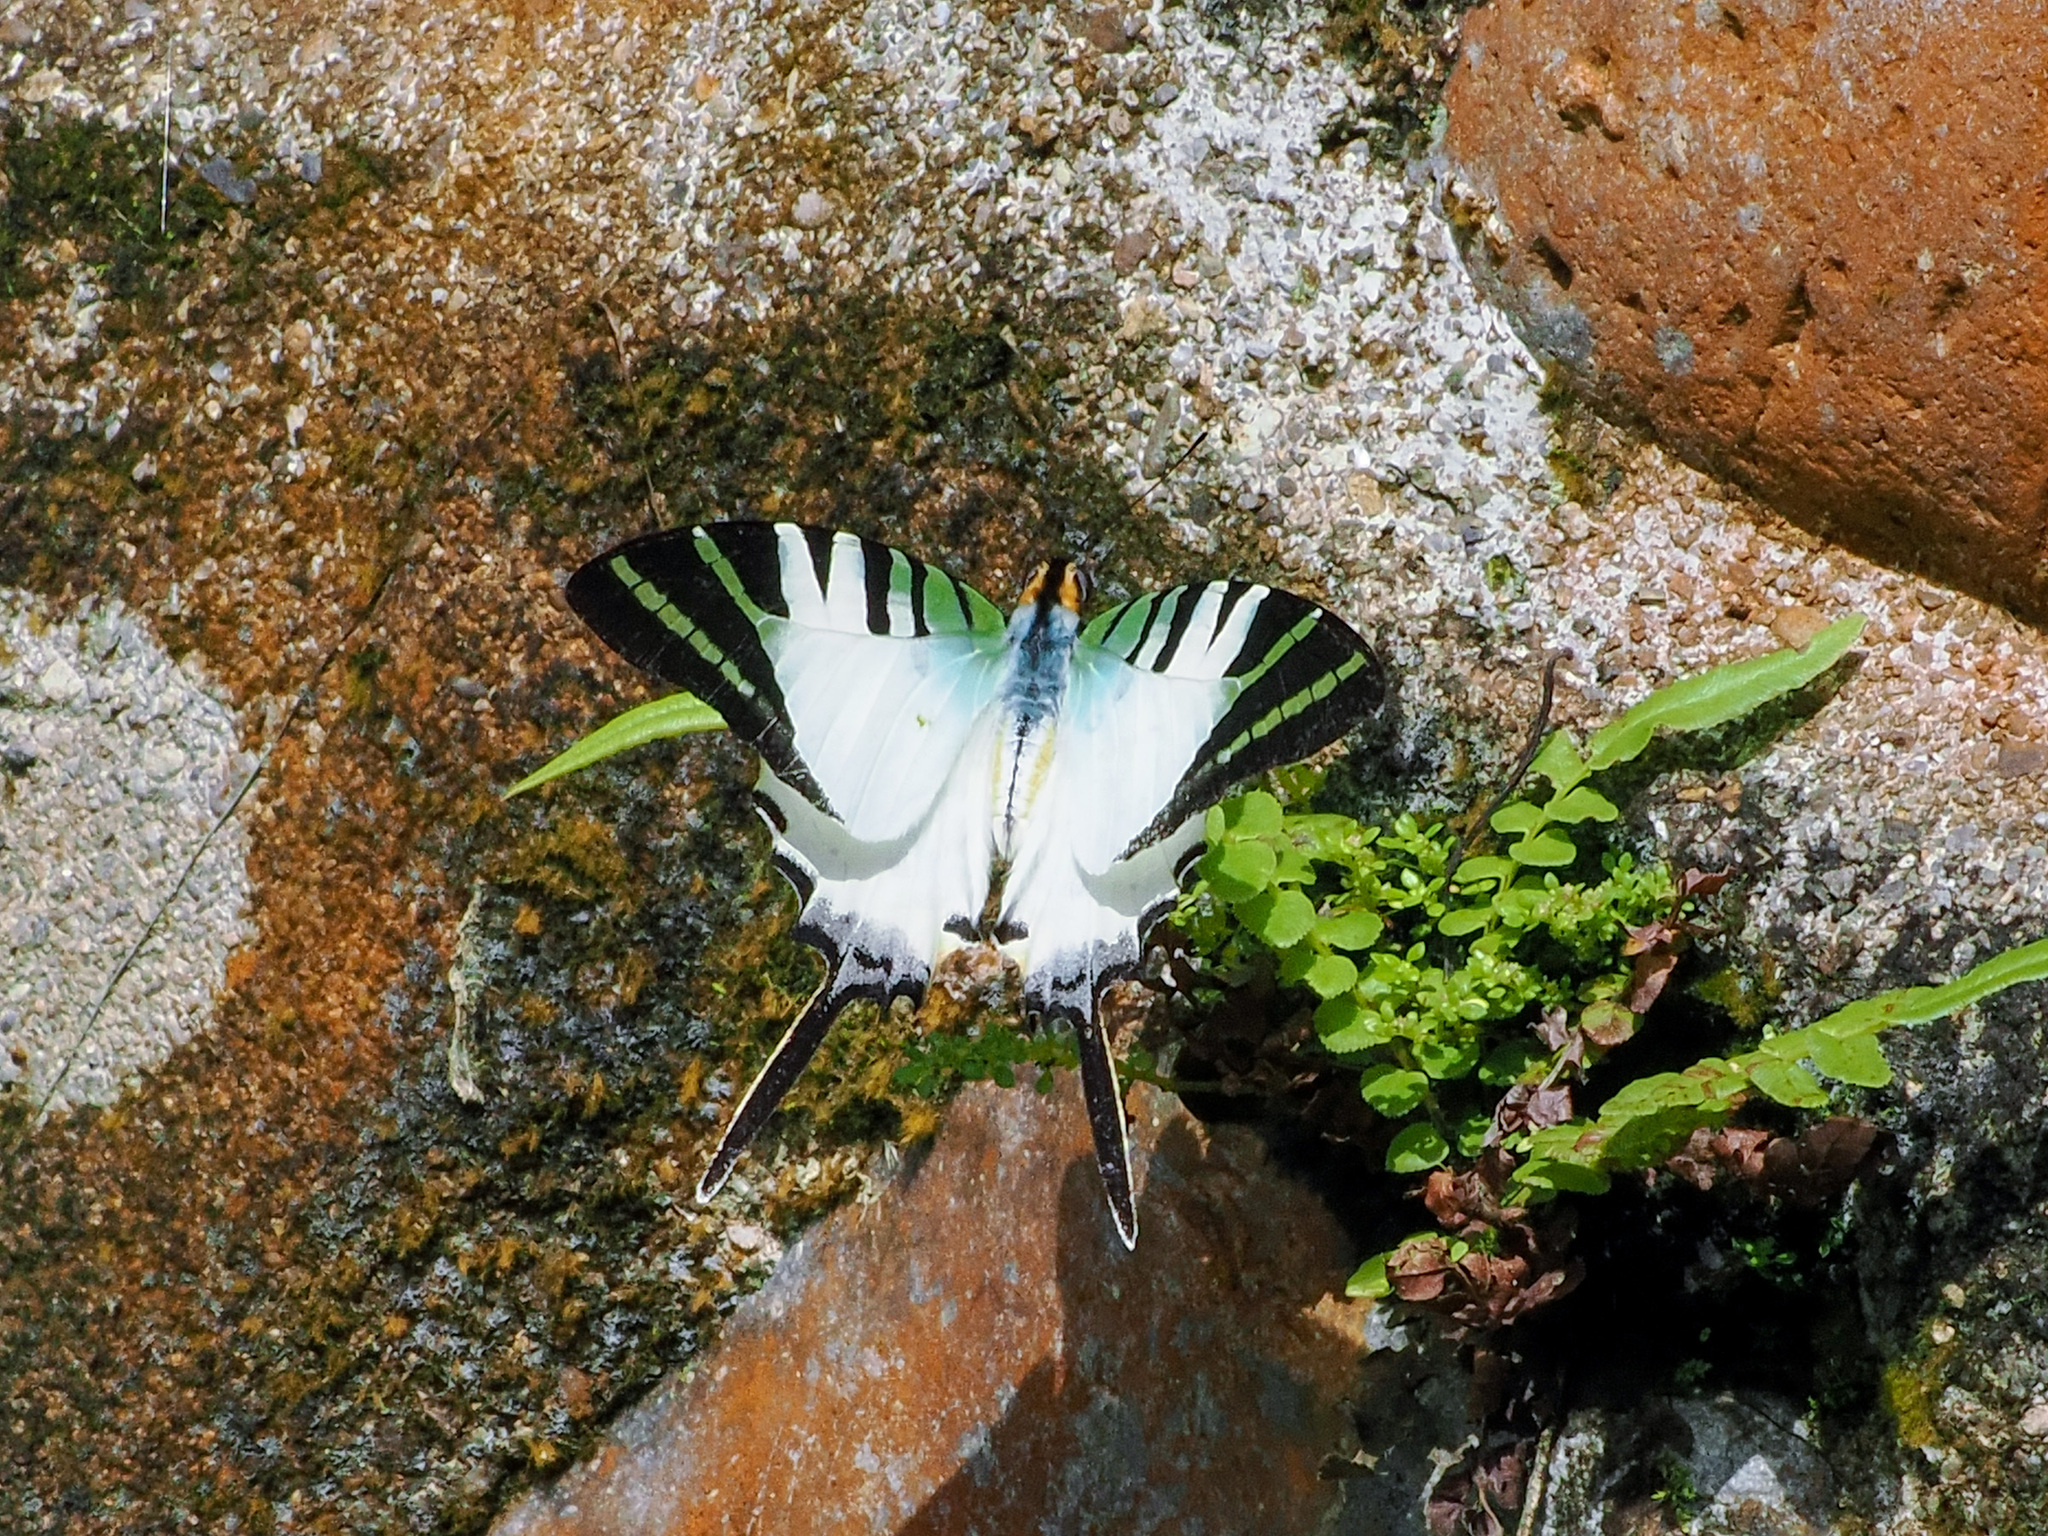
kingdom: Animalia
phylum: Arthropoda
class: Insecta
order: Lepidoptera
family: Papilionidae
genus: Graphium
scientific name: Graphium antiphates
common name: Fivebar swordtail
